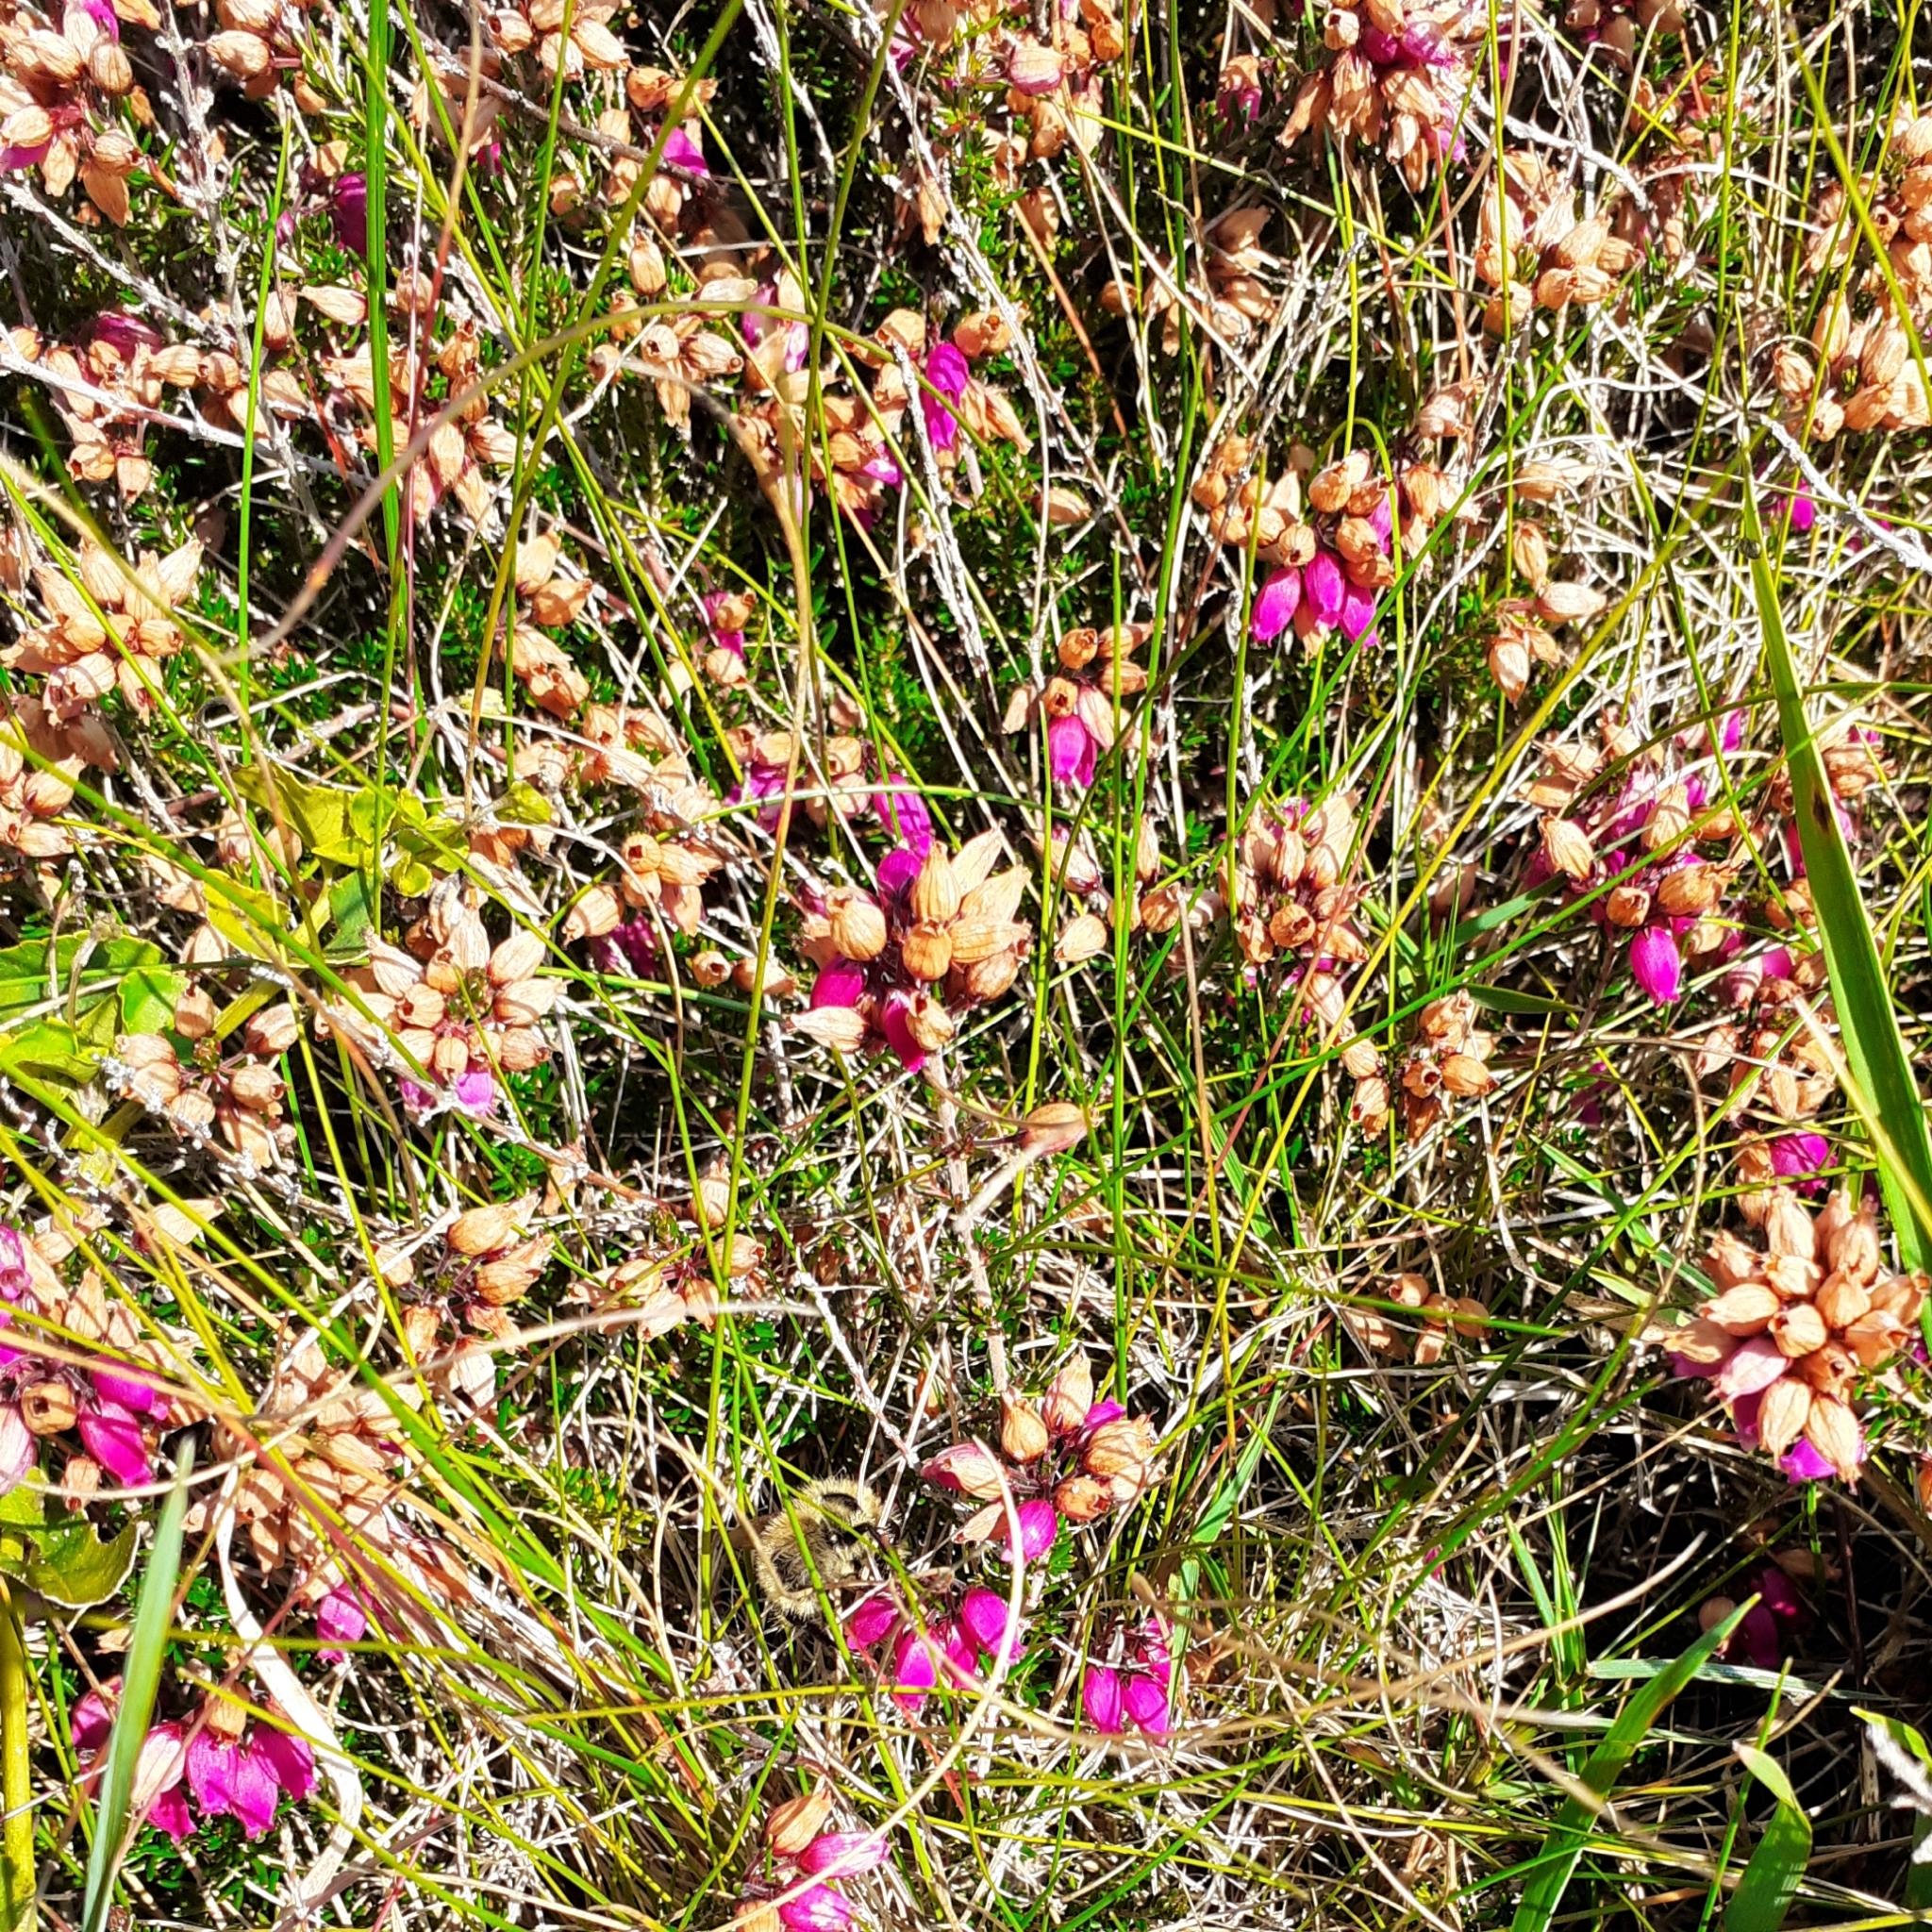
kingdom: Plantae
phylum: Tracheophyta
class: Magnoliopsida
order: Ericales
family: Ericaceae
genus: Erica
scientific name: Erica cinerea
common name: Bell heather
